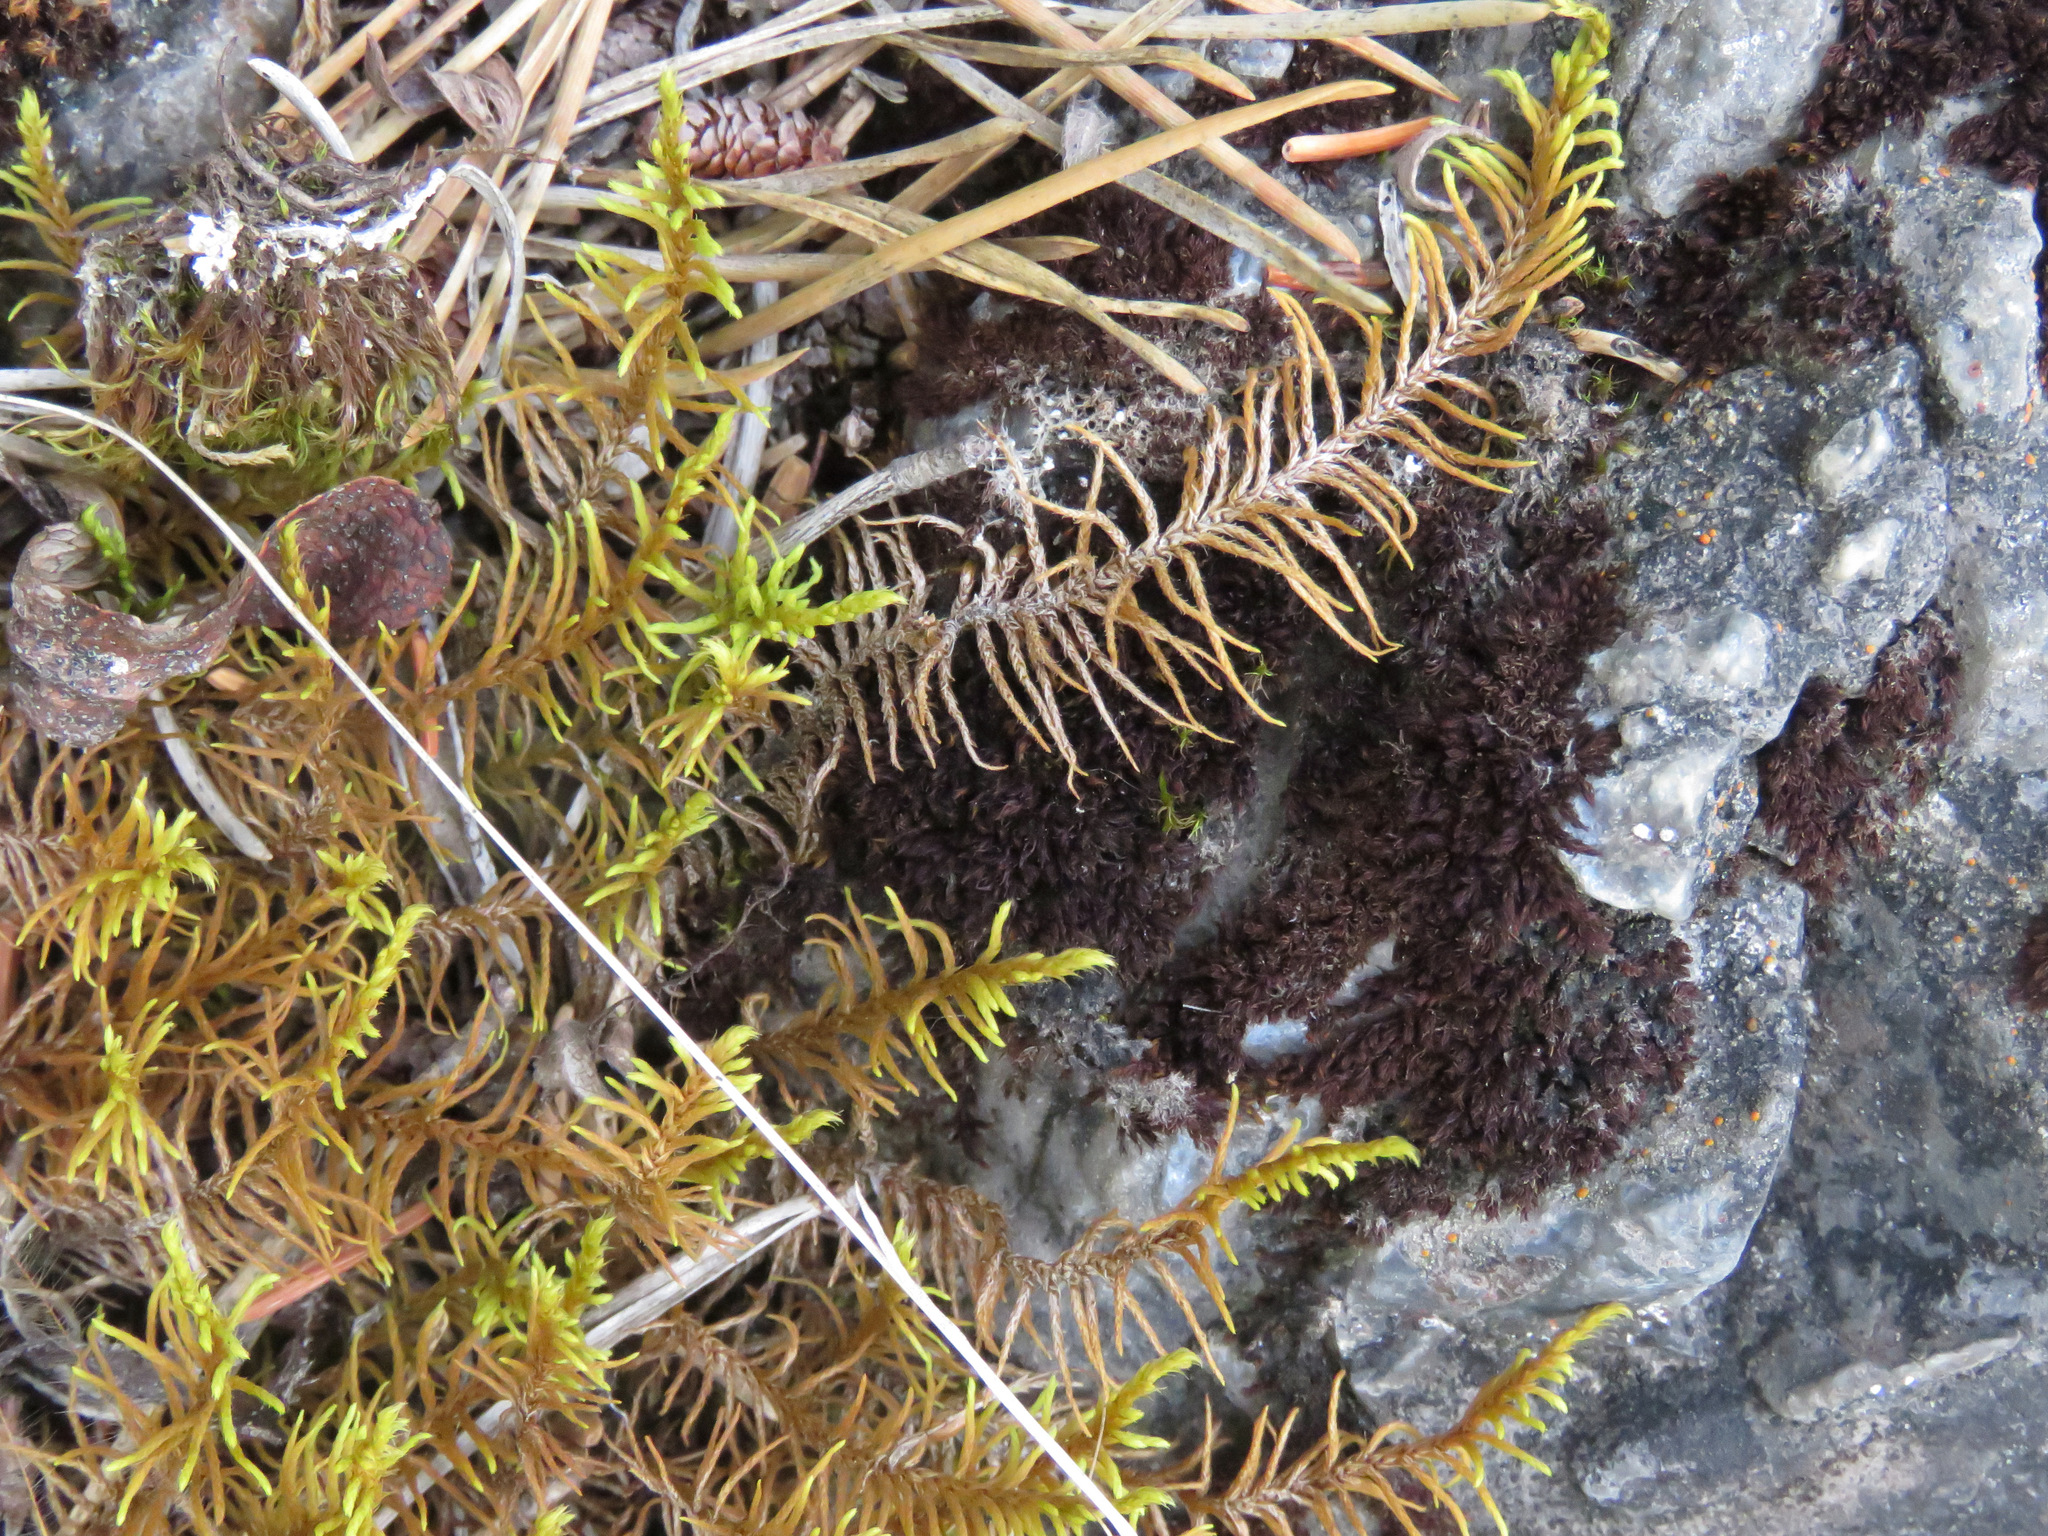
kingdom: Plantae
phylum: Bryophyta
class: Bryopsida
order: Hypnales
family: Thuidiaceae
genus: Abietinella
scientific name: Abietinella abietina
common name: Wiry fern moss
